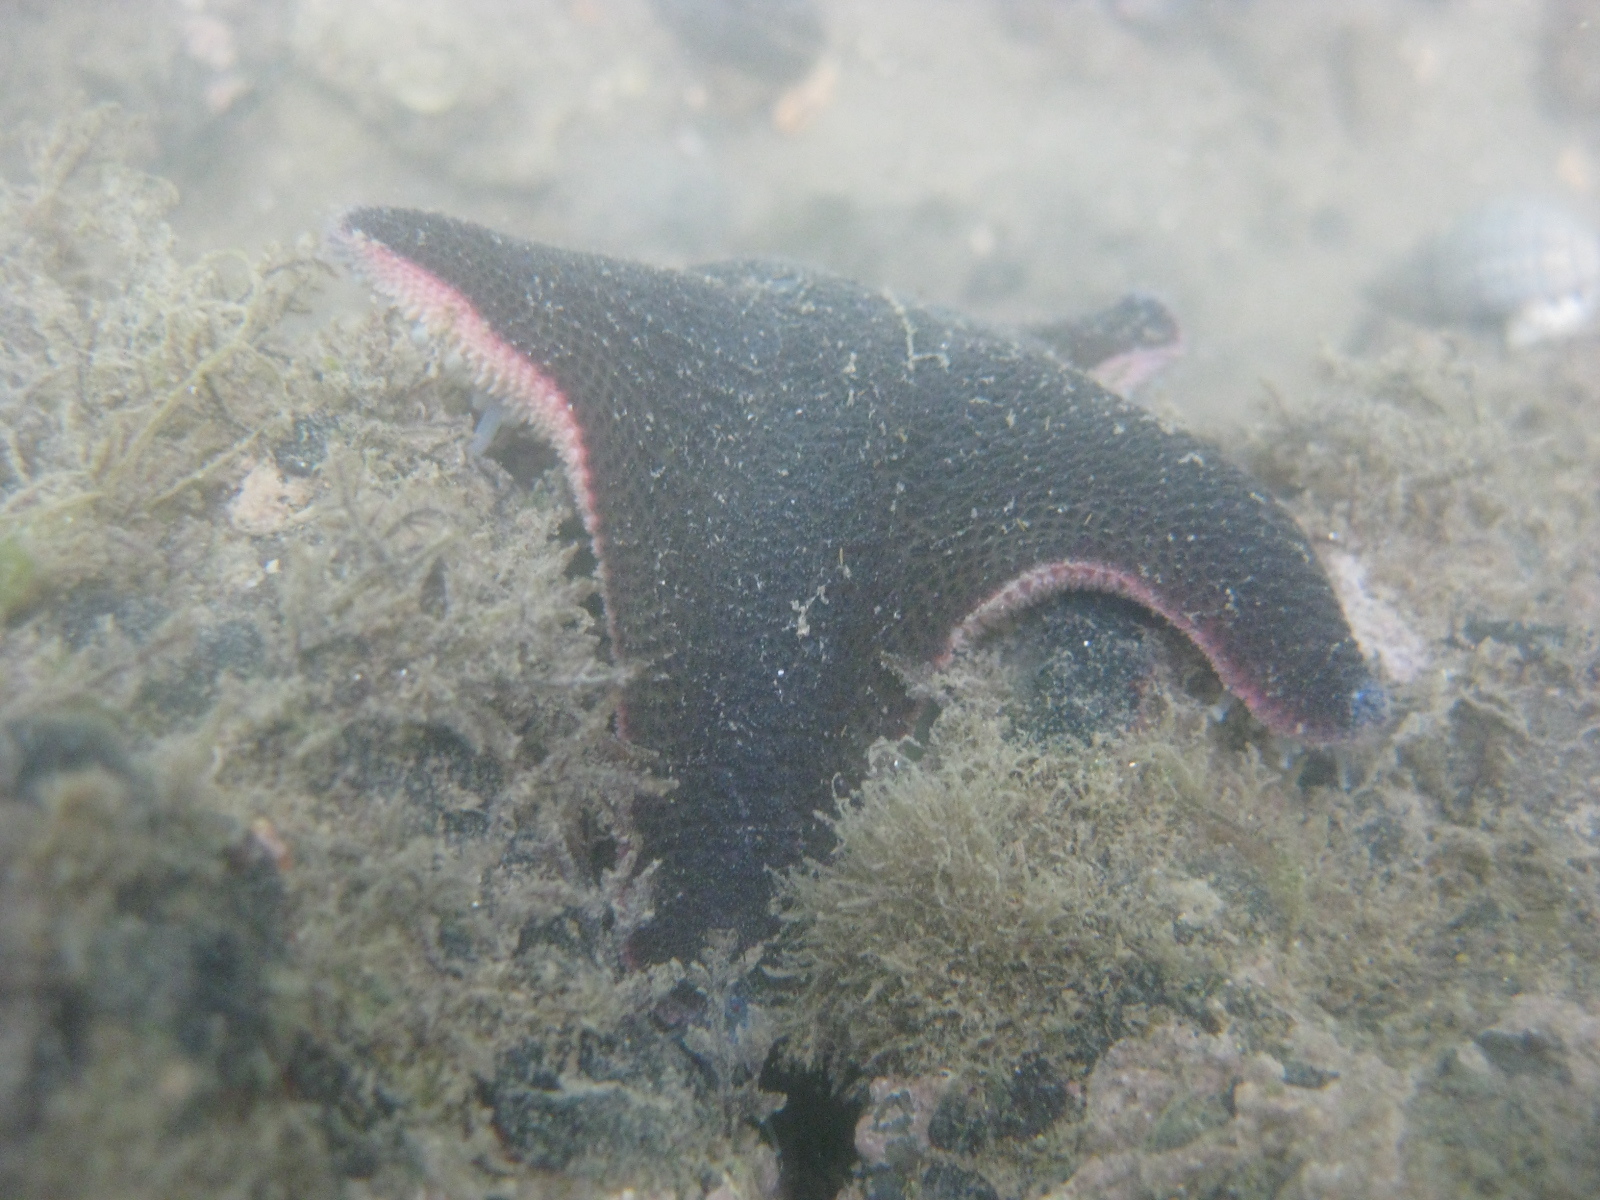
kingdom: Animalia
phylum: Echinodermata
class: Asteroidea
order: Valvatida
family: Asterinidae
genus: Patiriella
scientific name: Patiriella regularis
